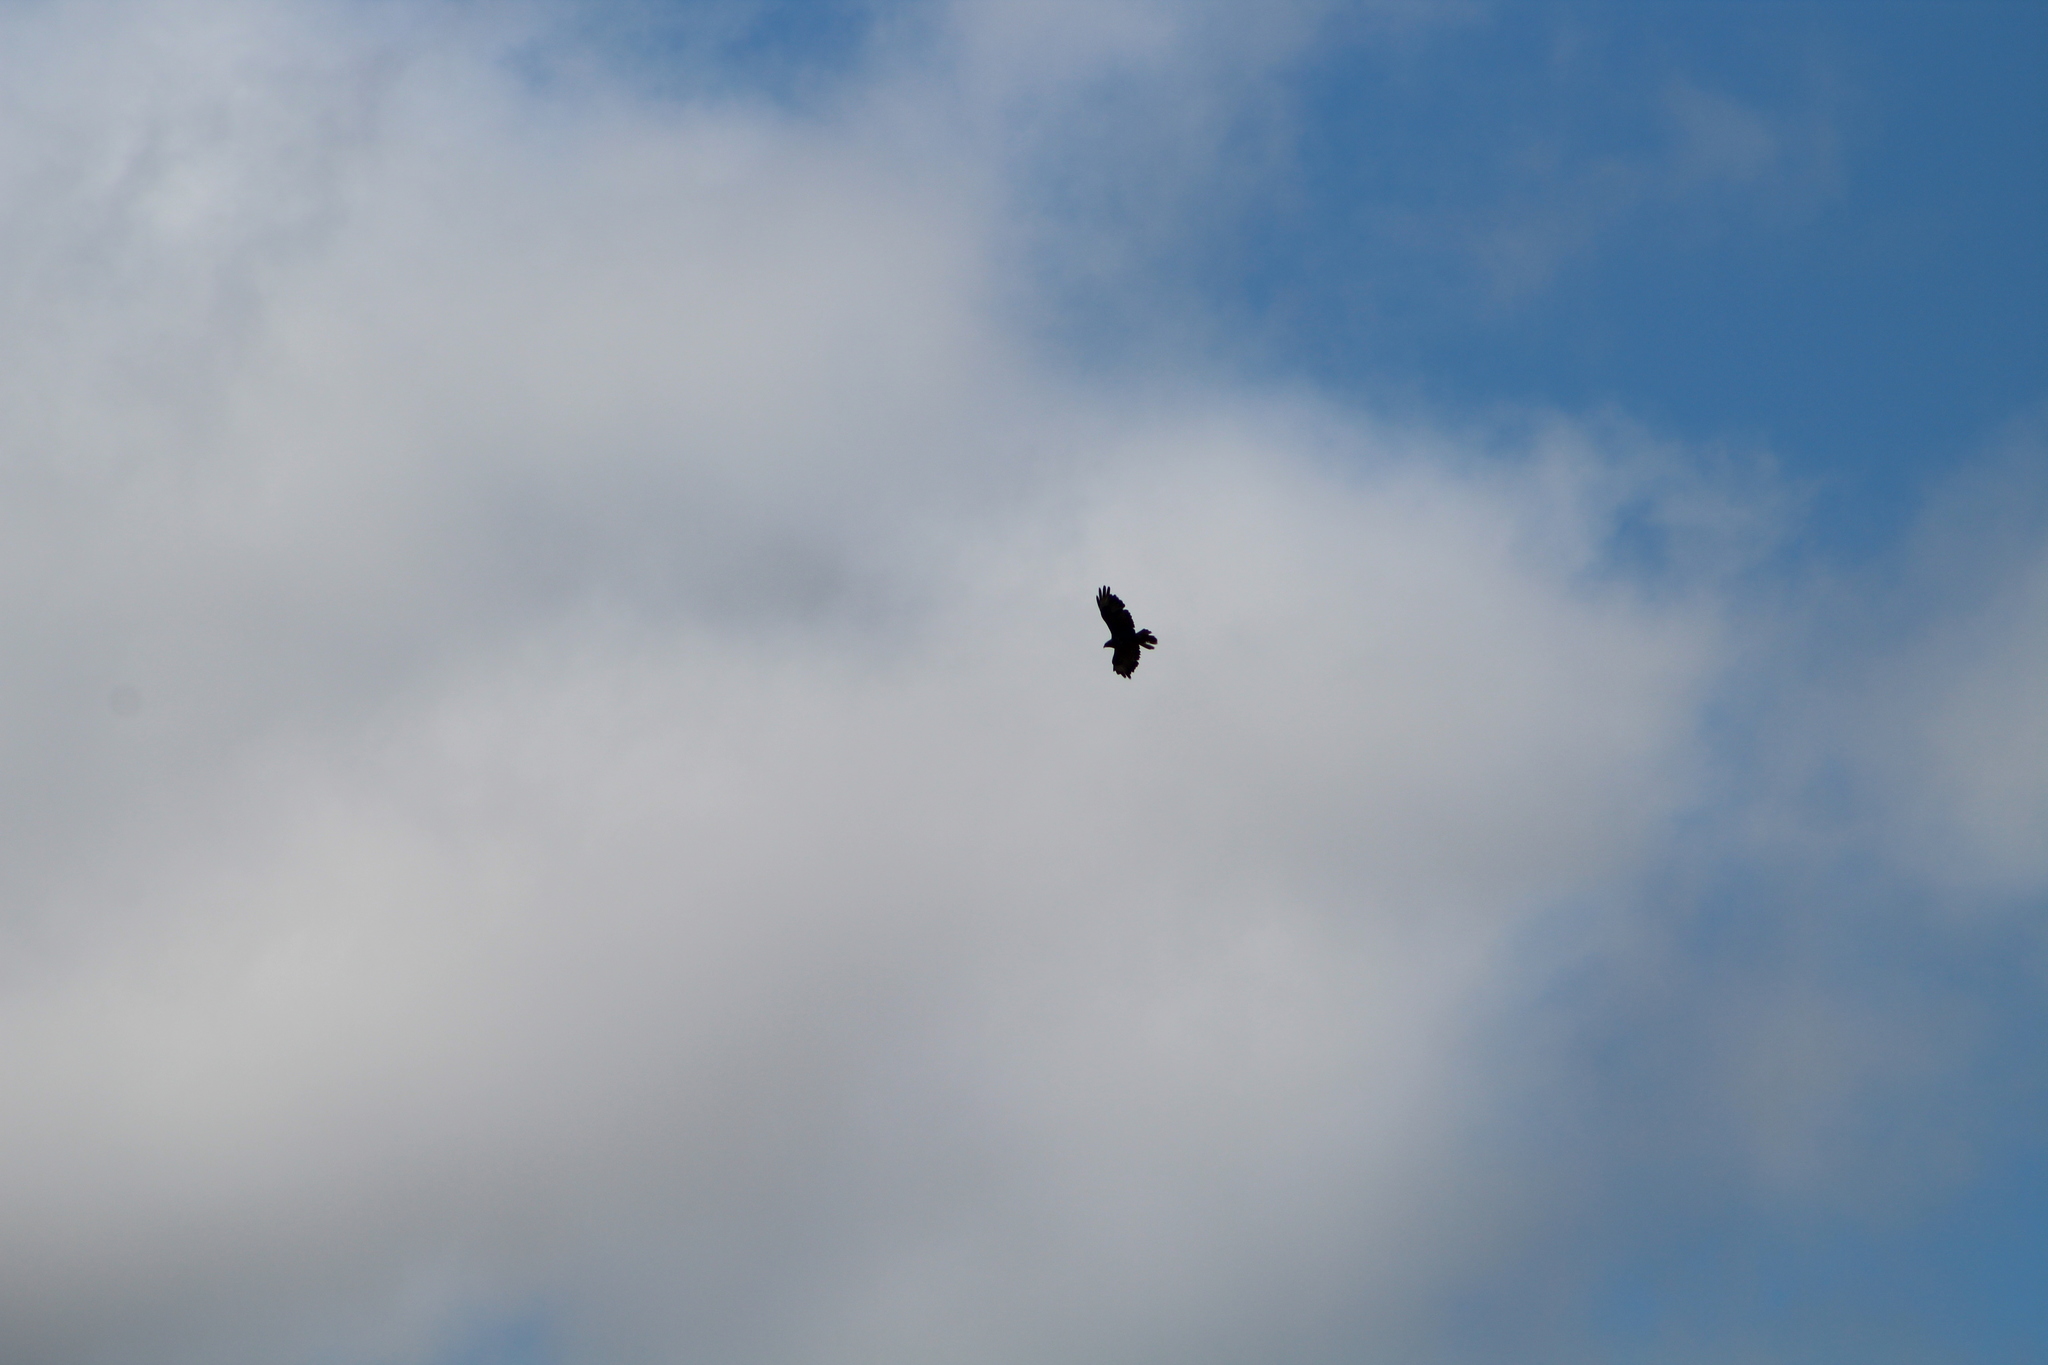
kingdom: Animalia
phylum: Chordata
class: Aves
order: Accipitriformes
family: Accipitridae
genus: Buteo
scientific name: Buteo buteo
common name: Common buzzard
